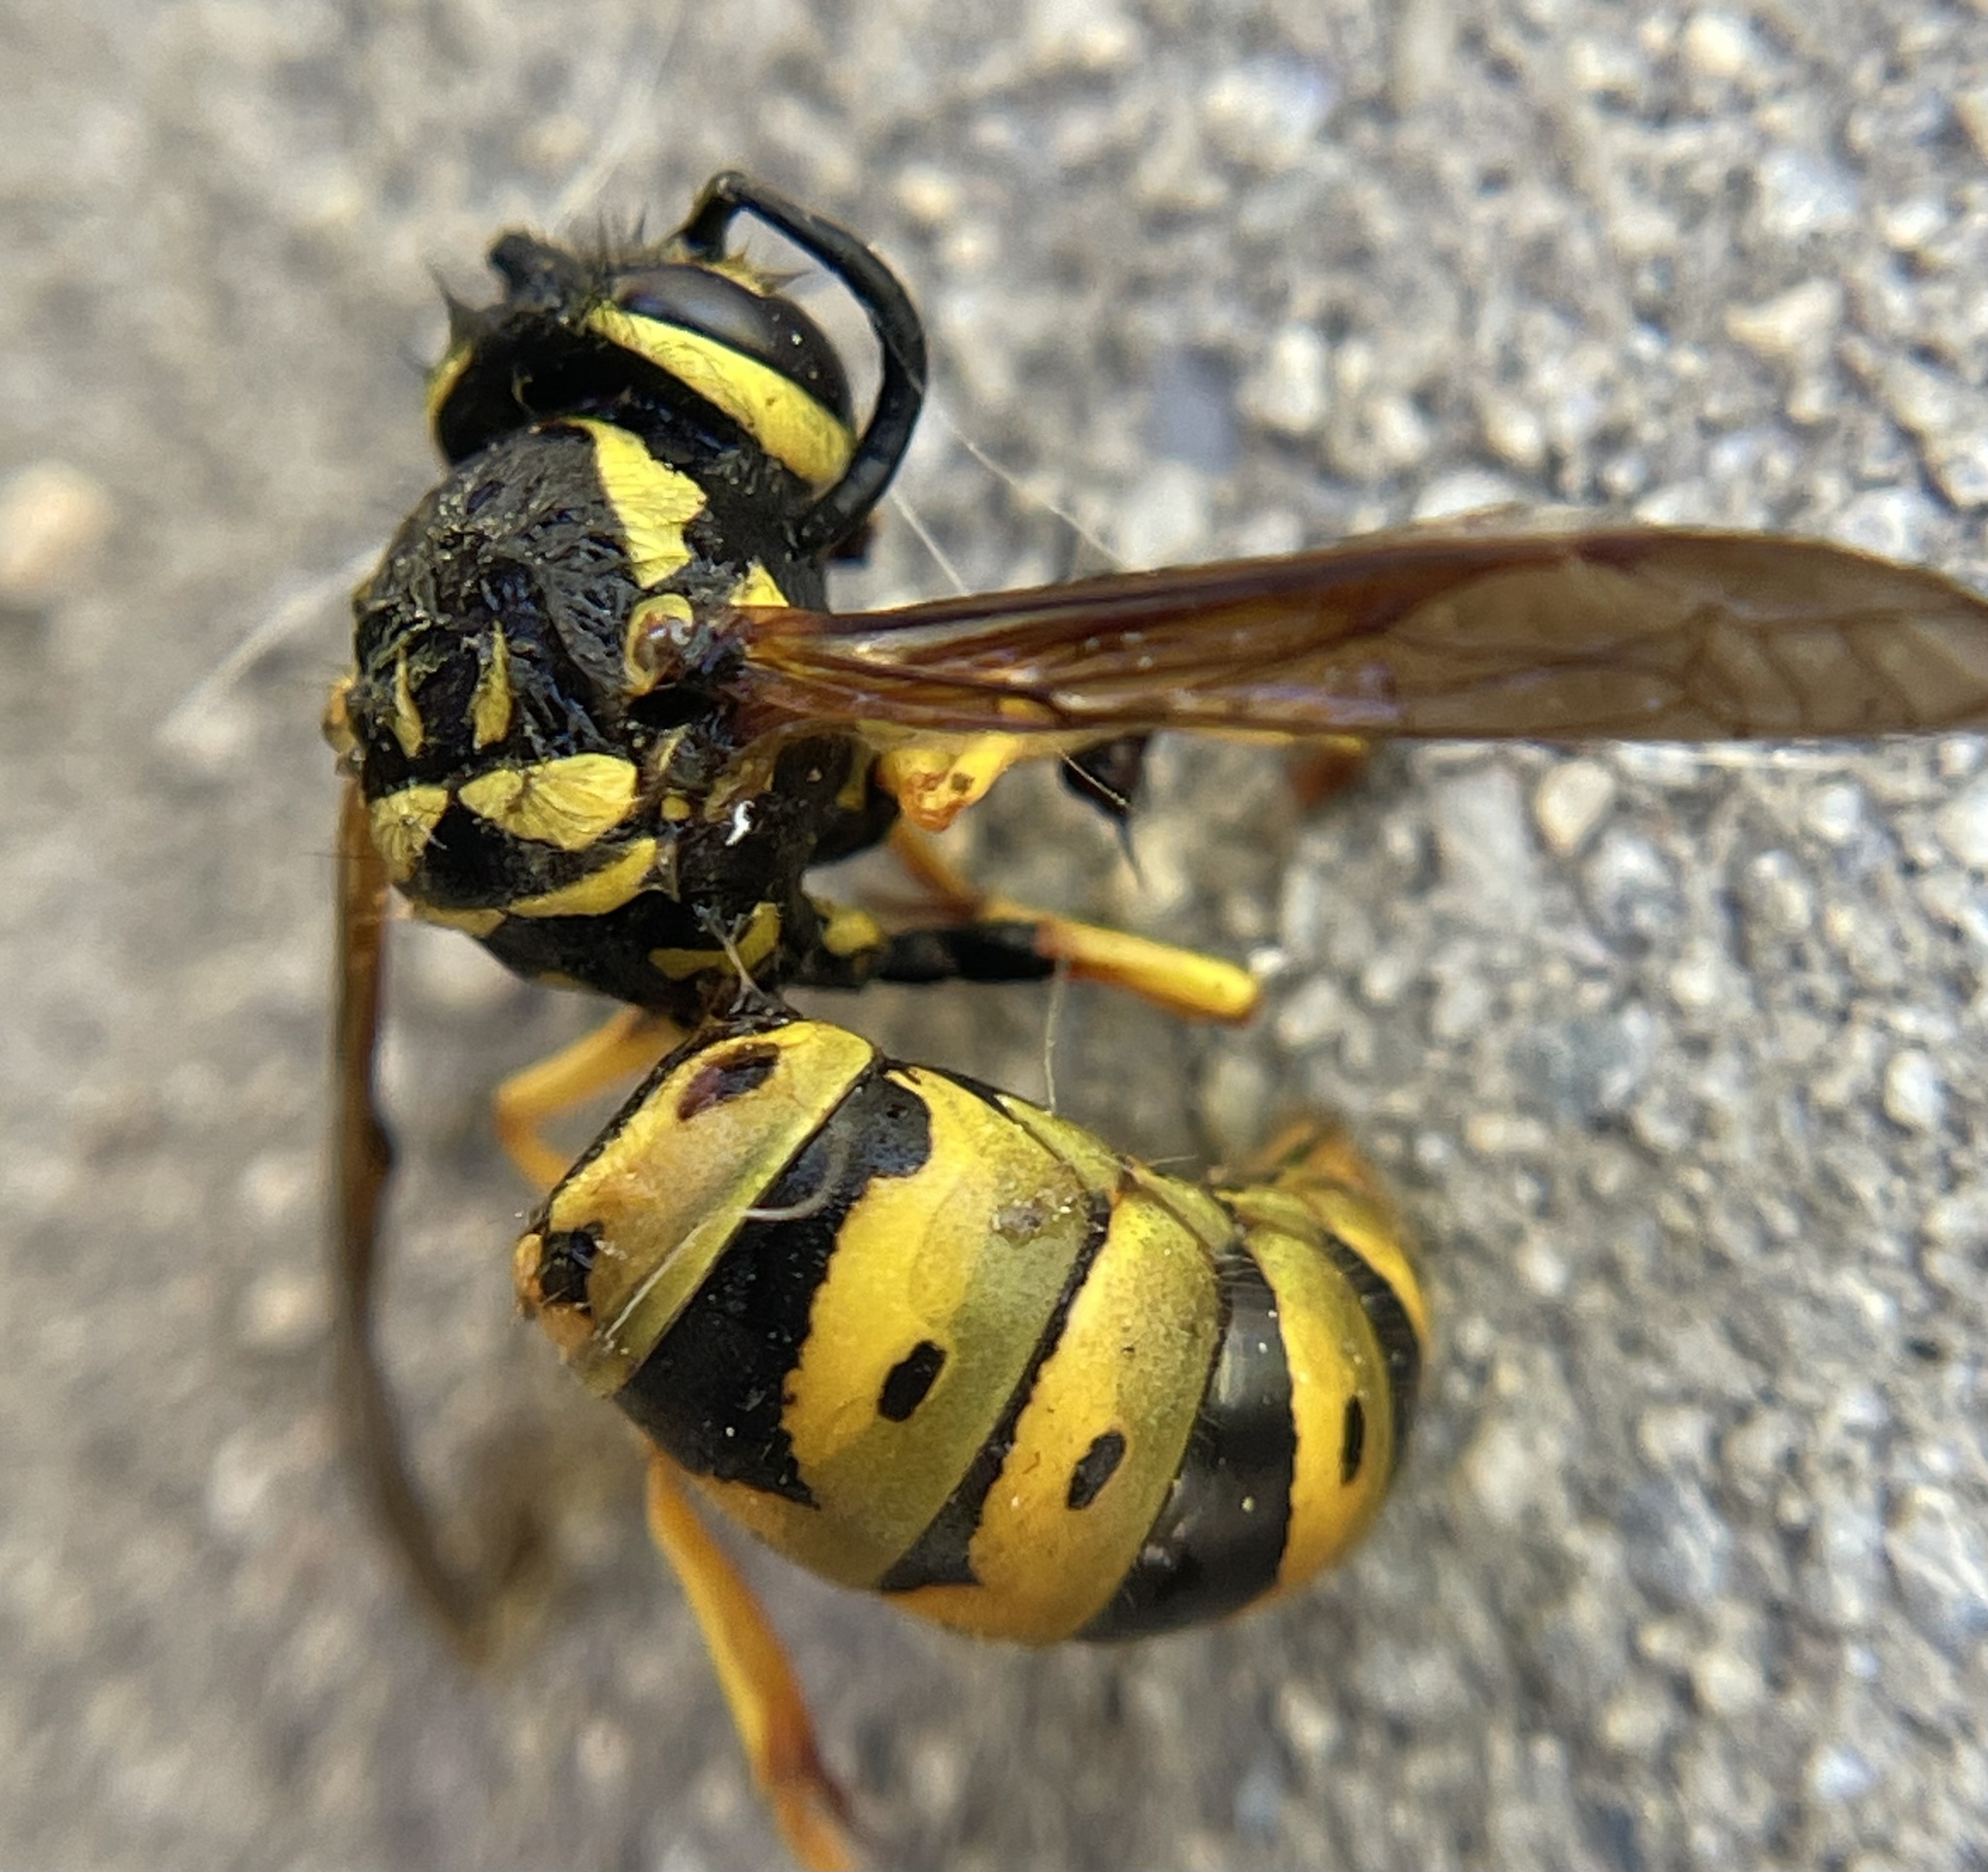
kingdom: Animalia
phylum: Arthropoda
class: Insecta
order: Hymenoptera
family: Vespidae
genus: Vespula
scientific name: Vespula maculifrons
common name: Eastern yellowjacket
